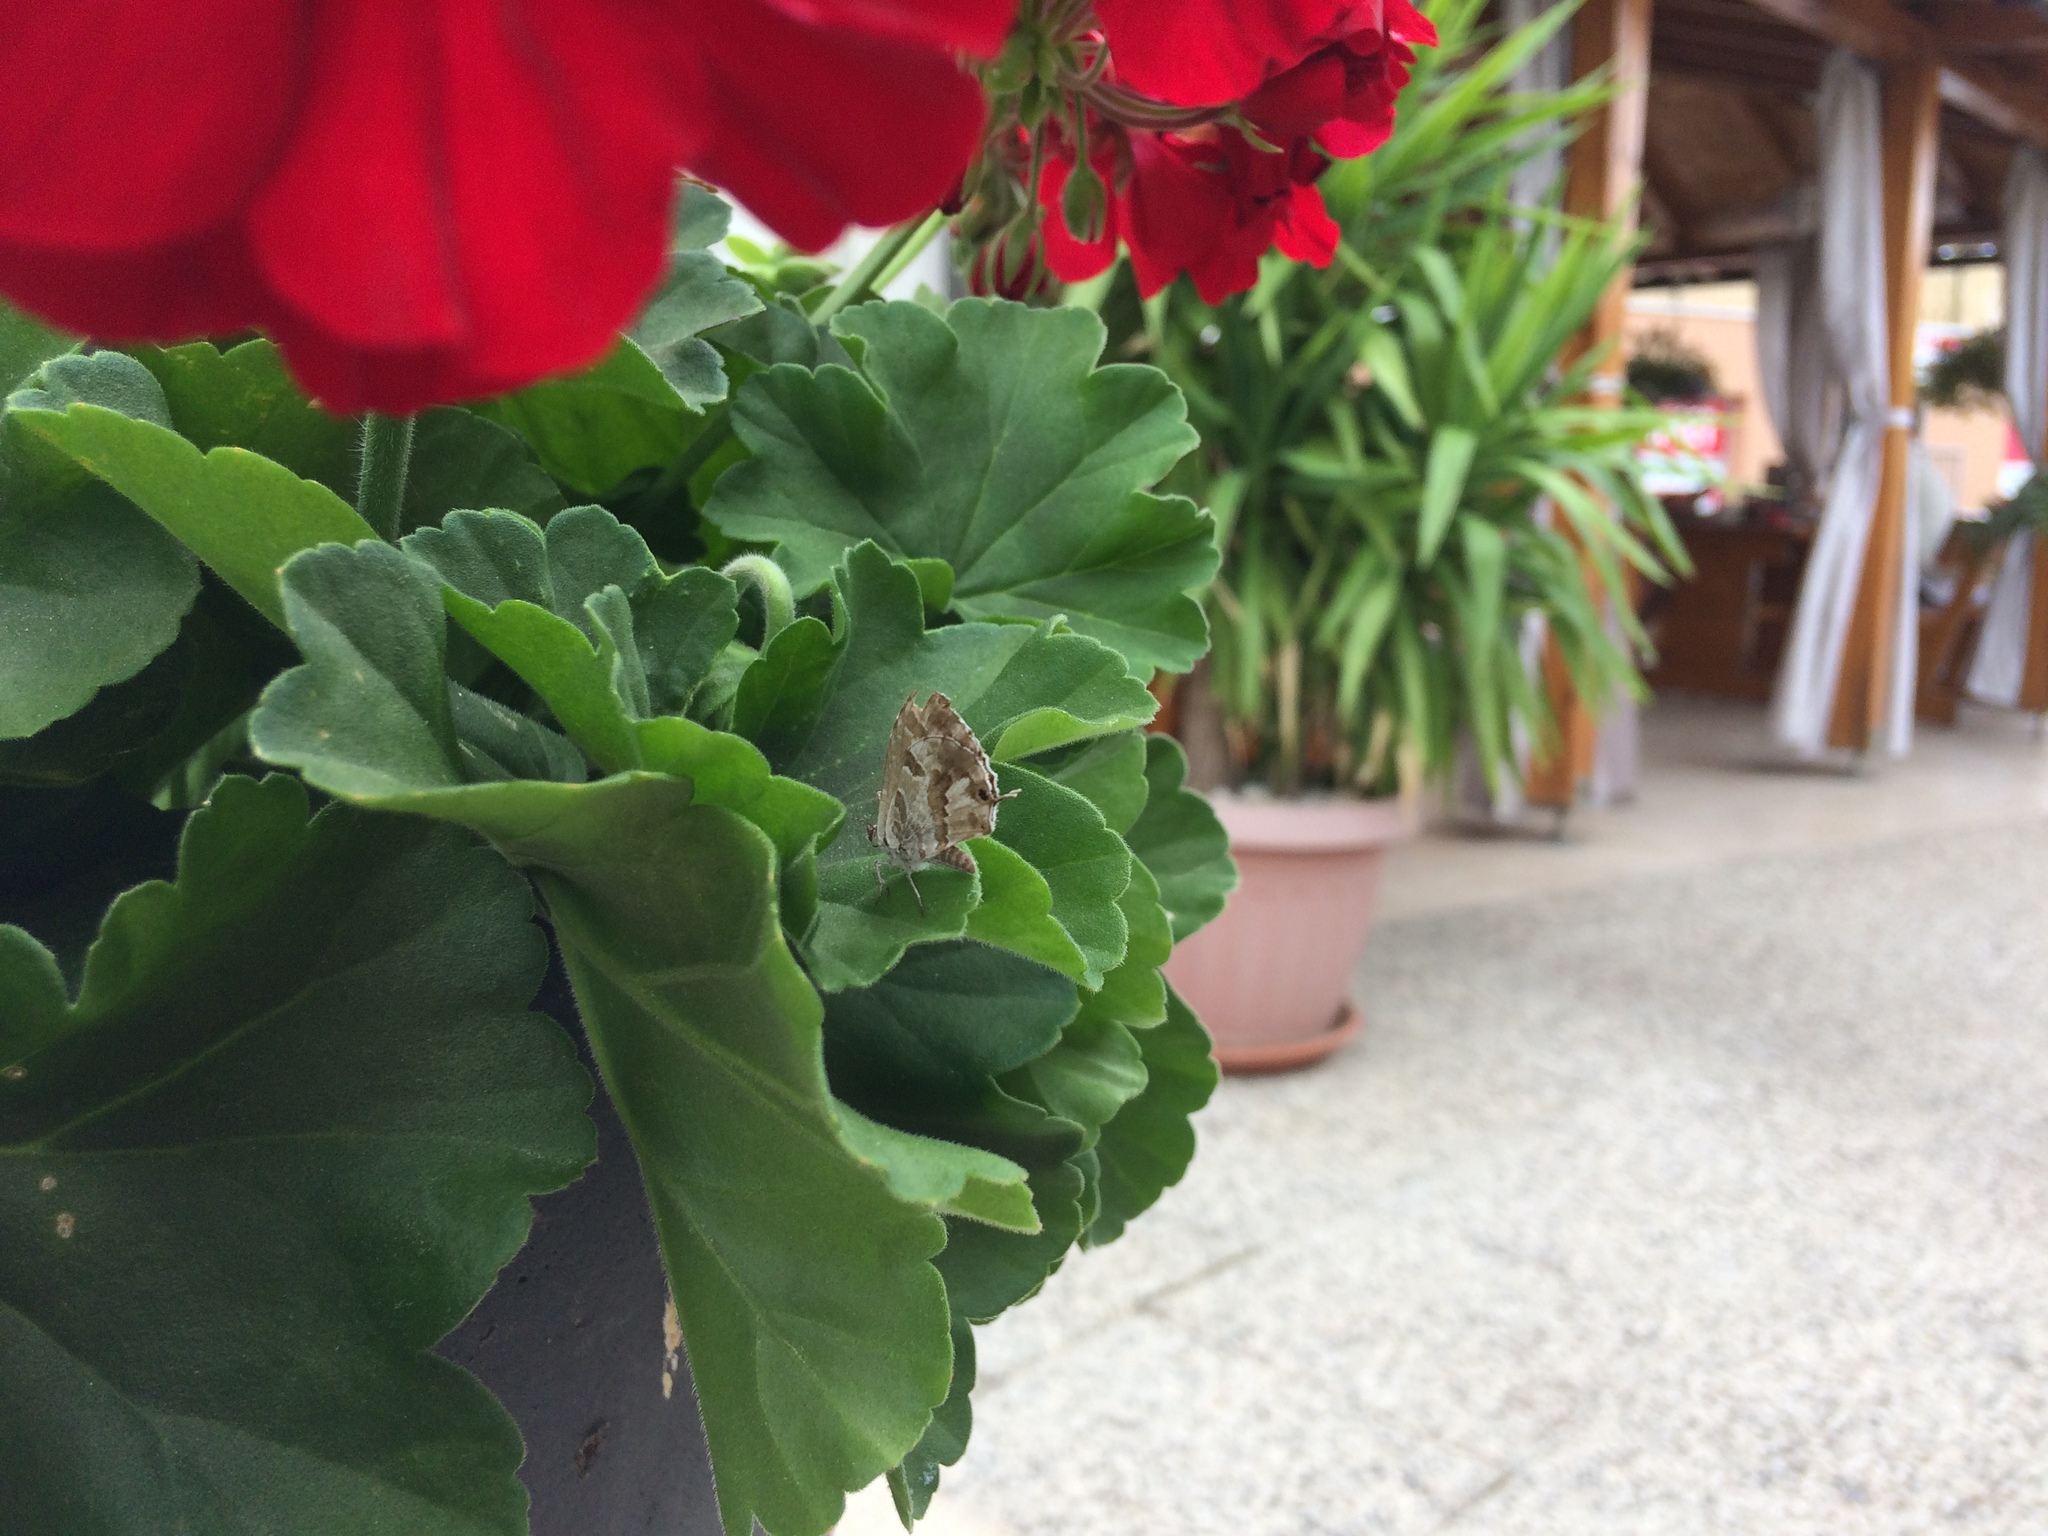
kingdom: Animalia
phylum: Arthropoda
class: Insecta
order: Lepidoptera
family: Lycaenidae
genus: Cacyreus
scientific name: Cacyreus marshalli
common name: Geranium bronze
